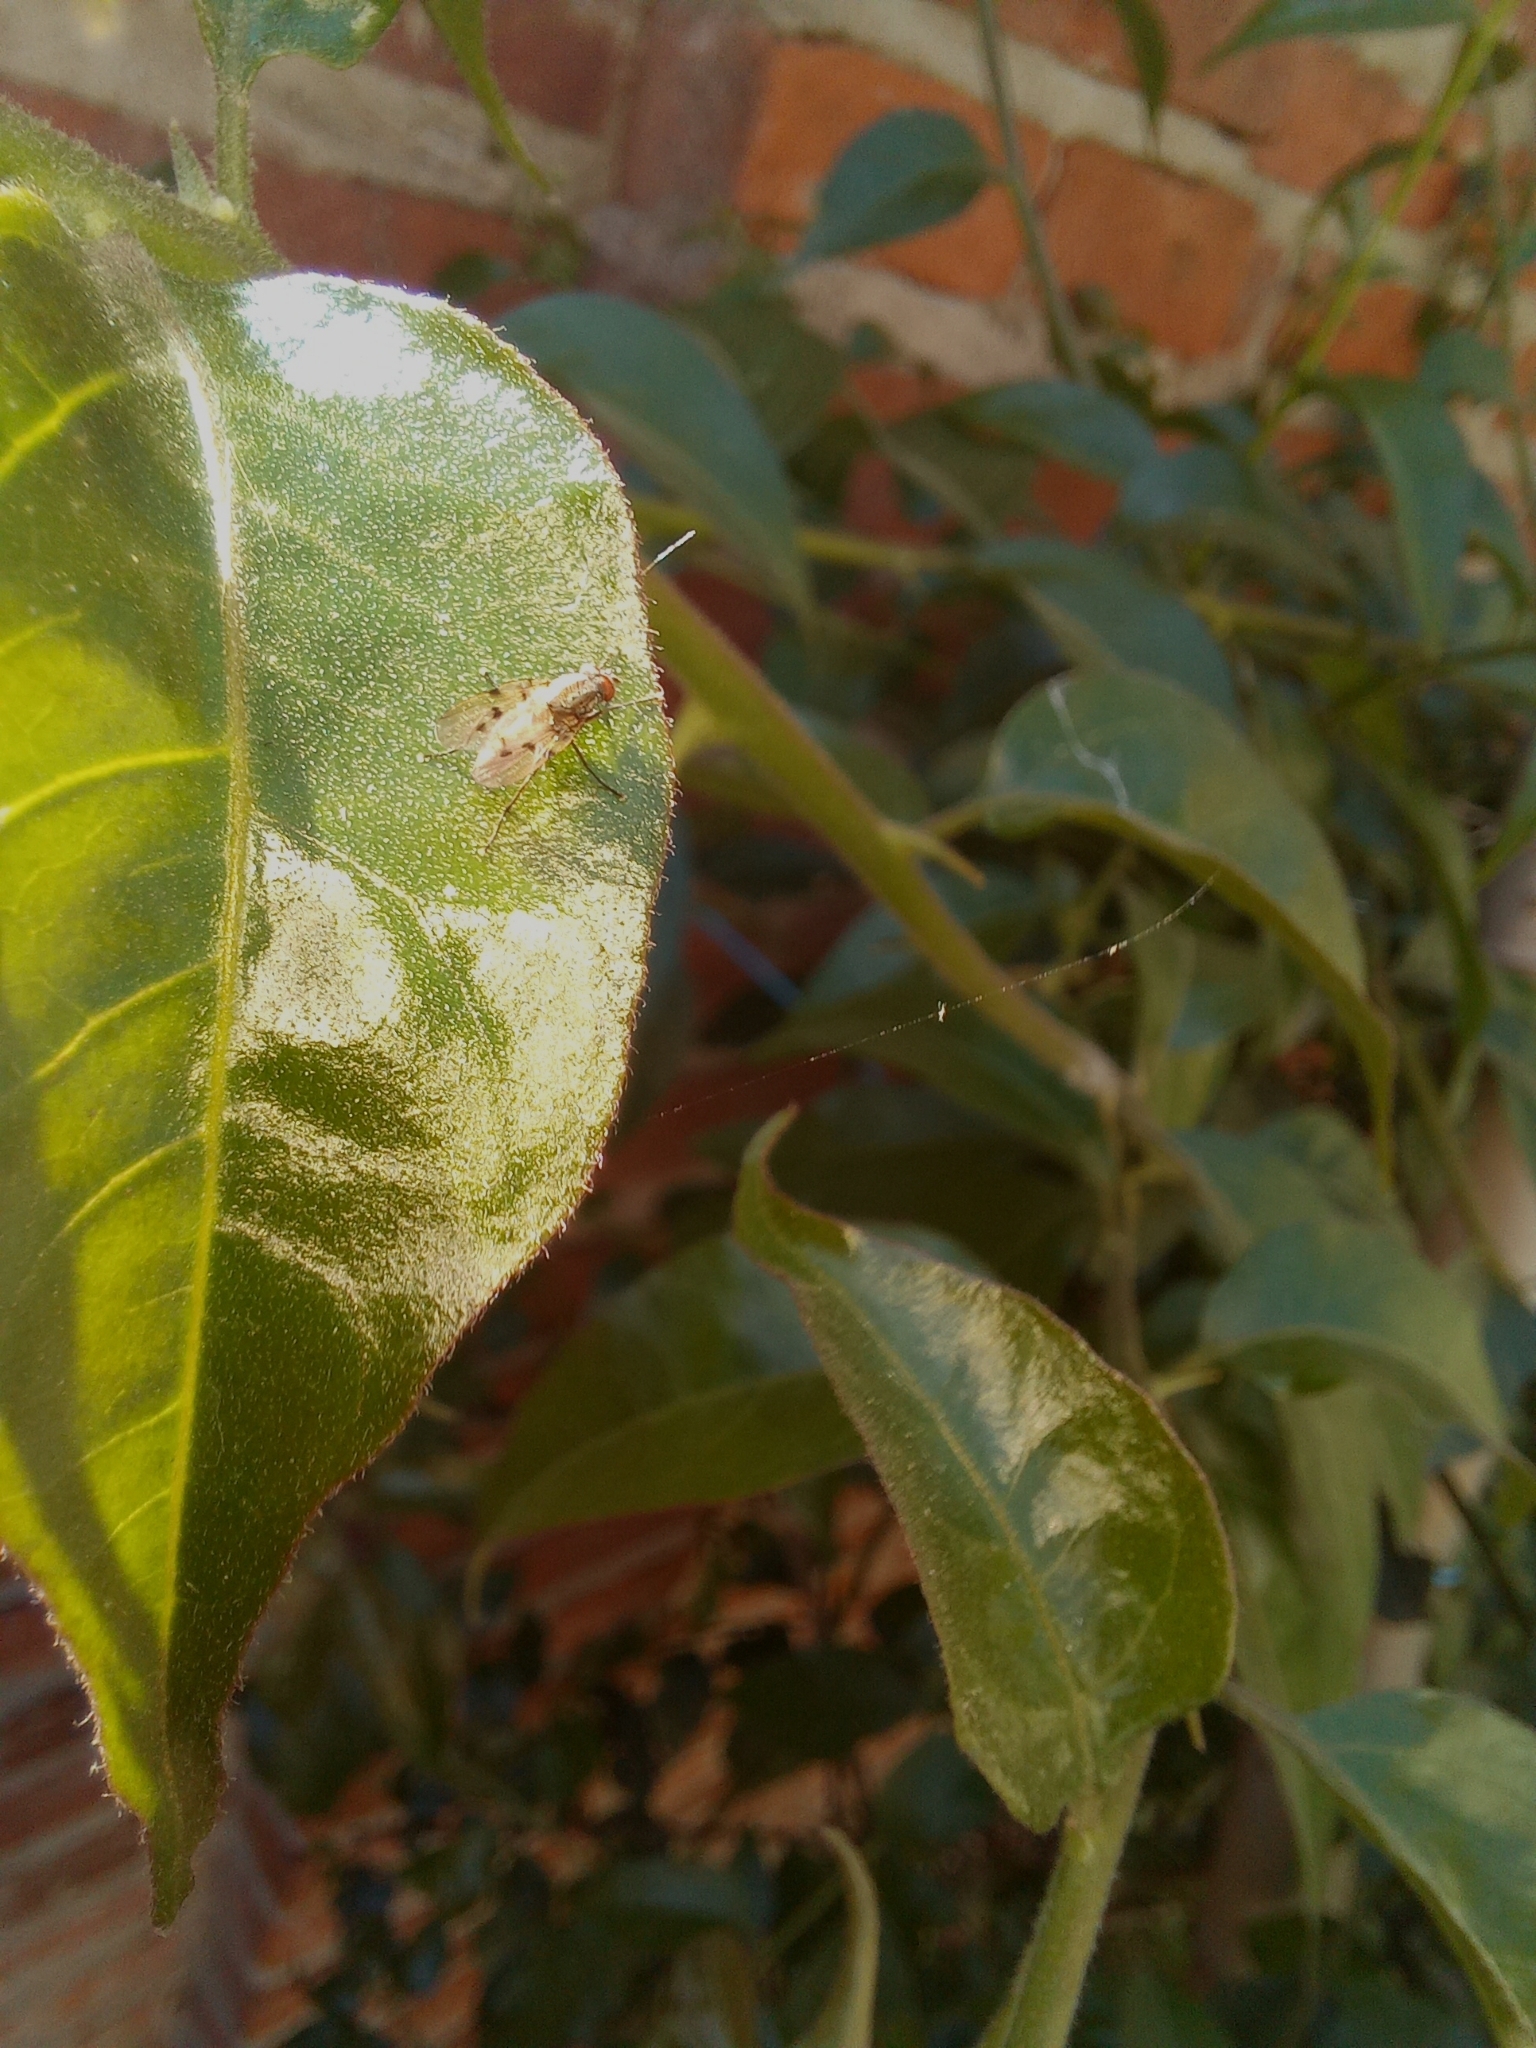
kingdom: Animalia
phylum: Arthropoda
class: Insecta
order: Diptera
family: Anthomyiidae
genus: Anthomyia
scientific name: Anthomyia punctipennis
